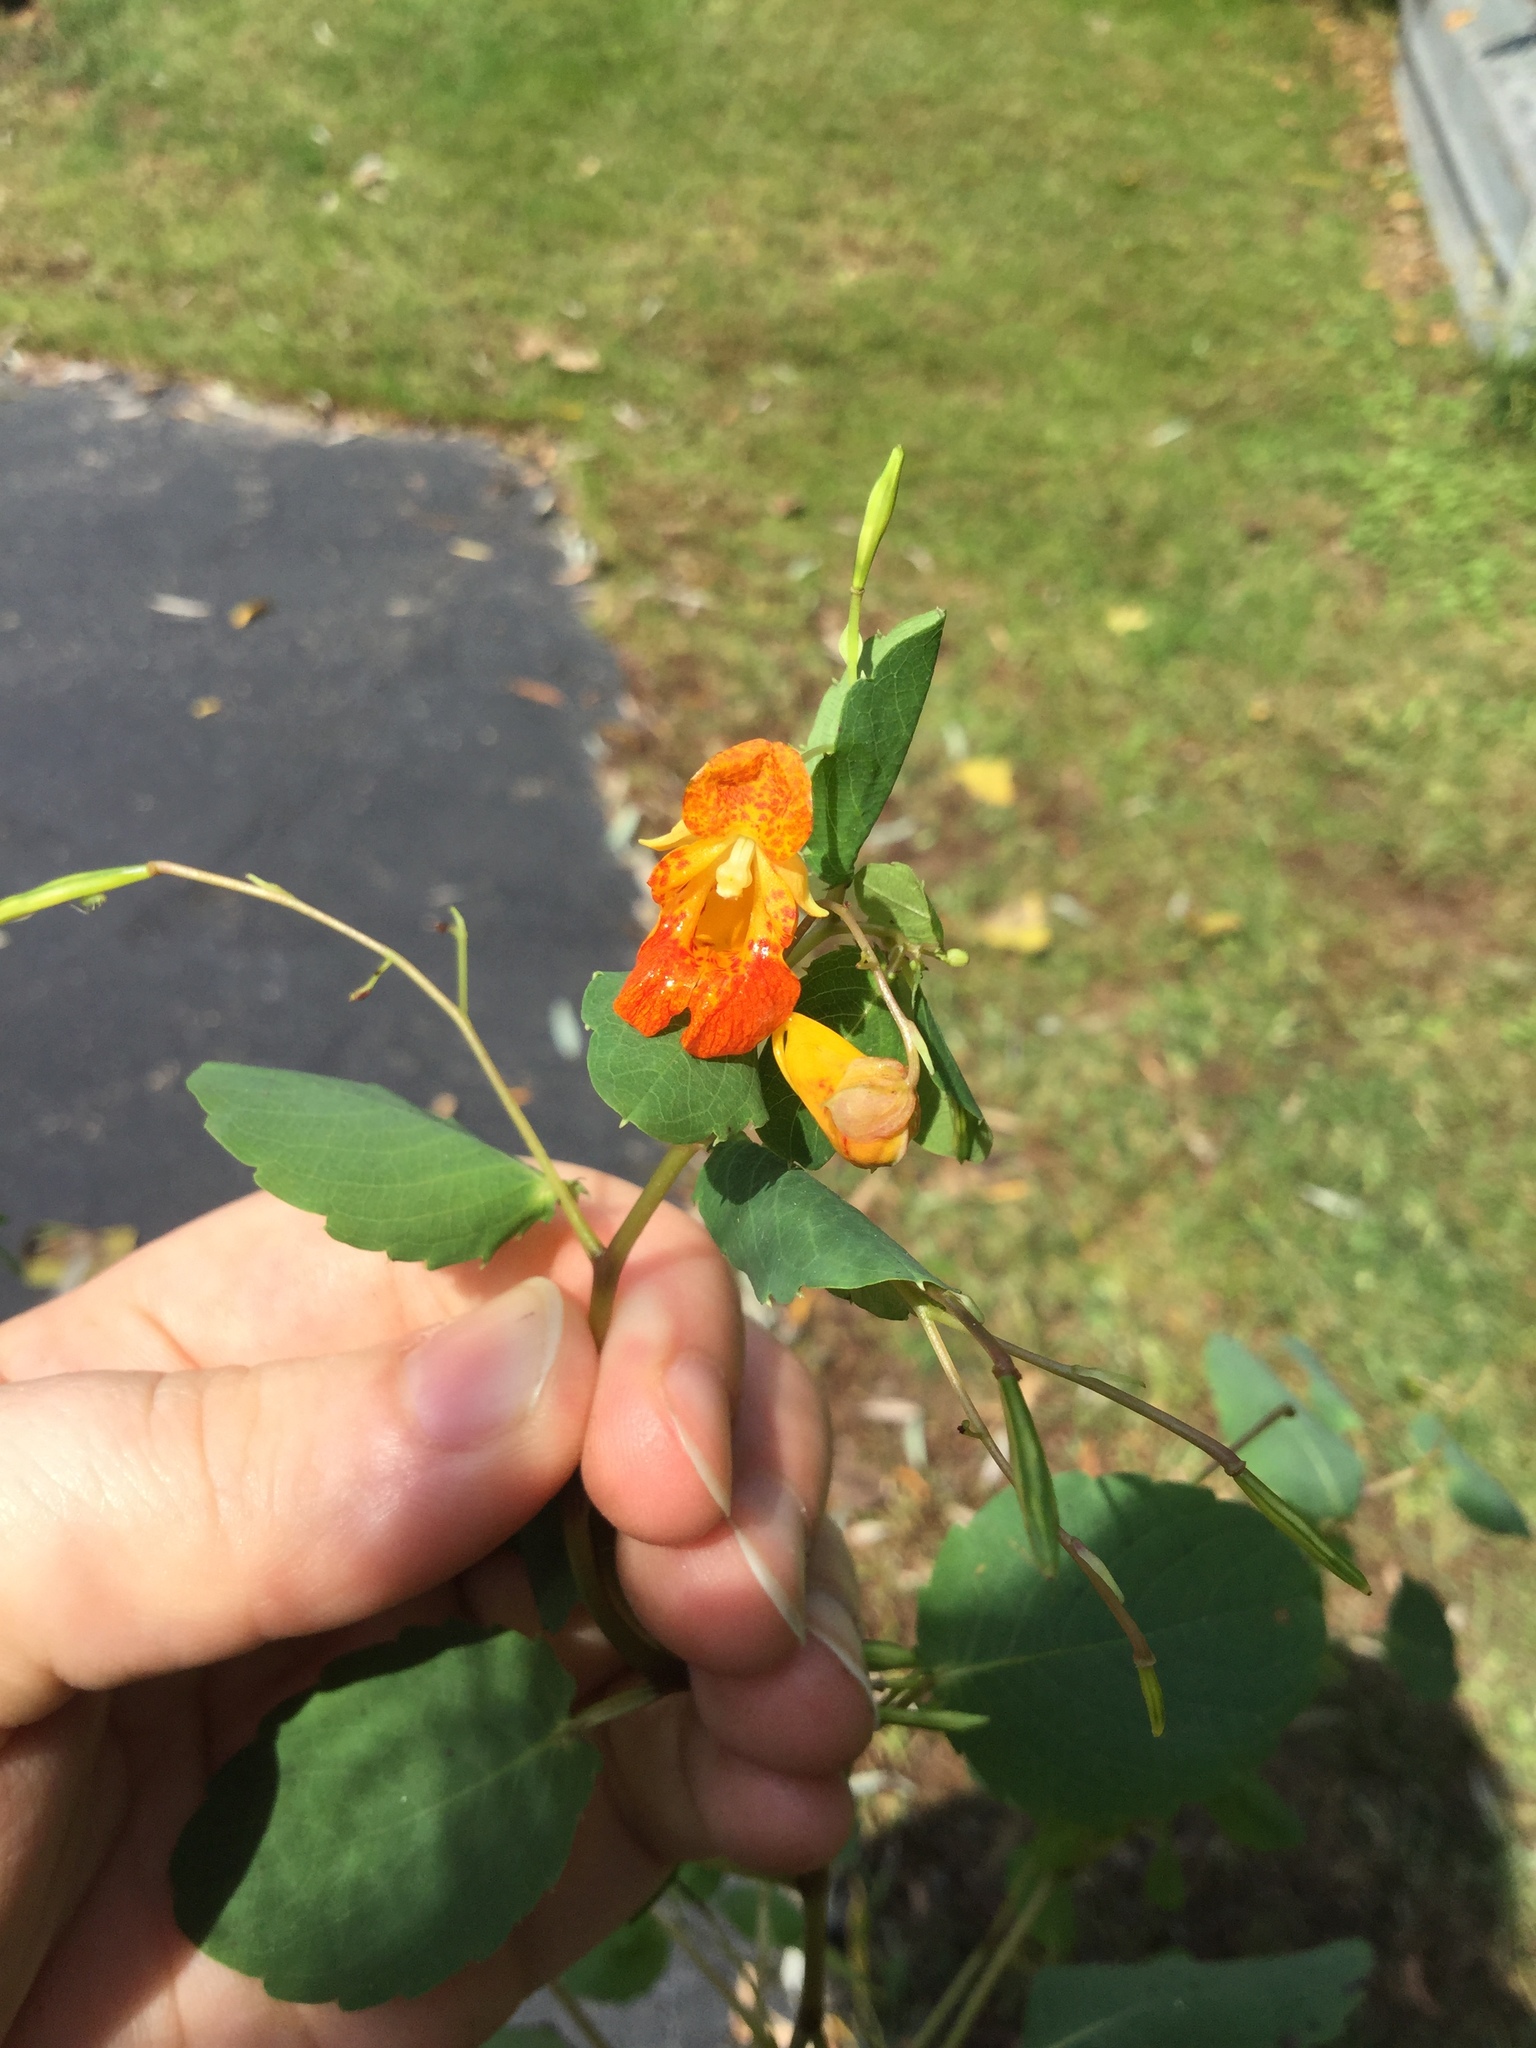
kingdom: Plantae
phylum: Tracheophyta
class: Magnoliopsida
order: Ericales
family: Balsaminaceae
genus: Impatiens
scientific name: Impatiens capensis
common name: Orange balsam
